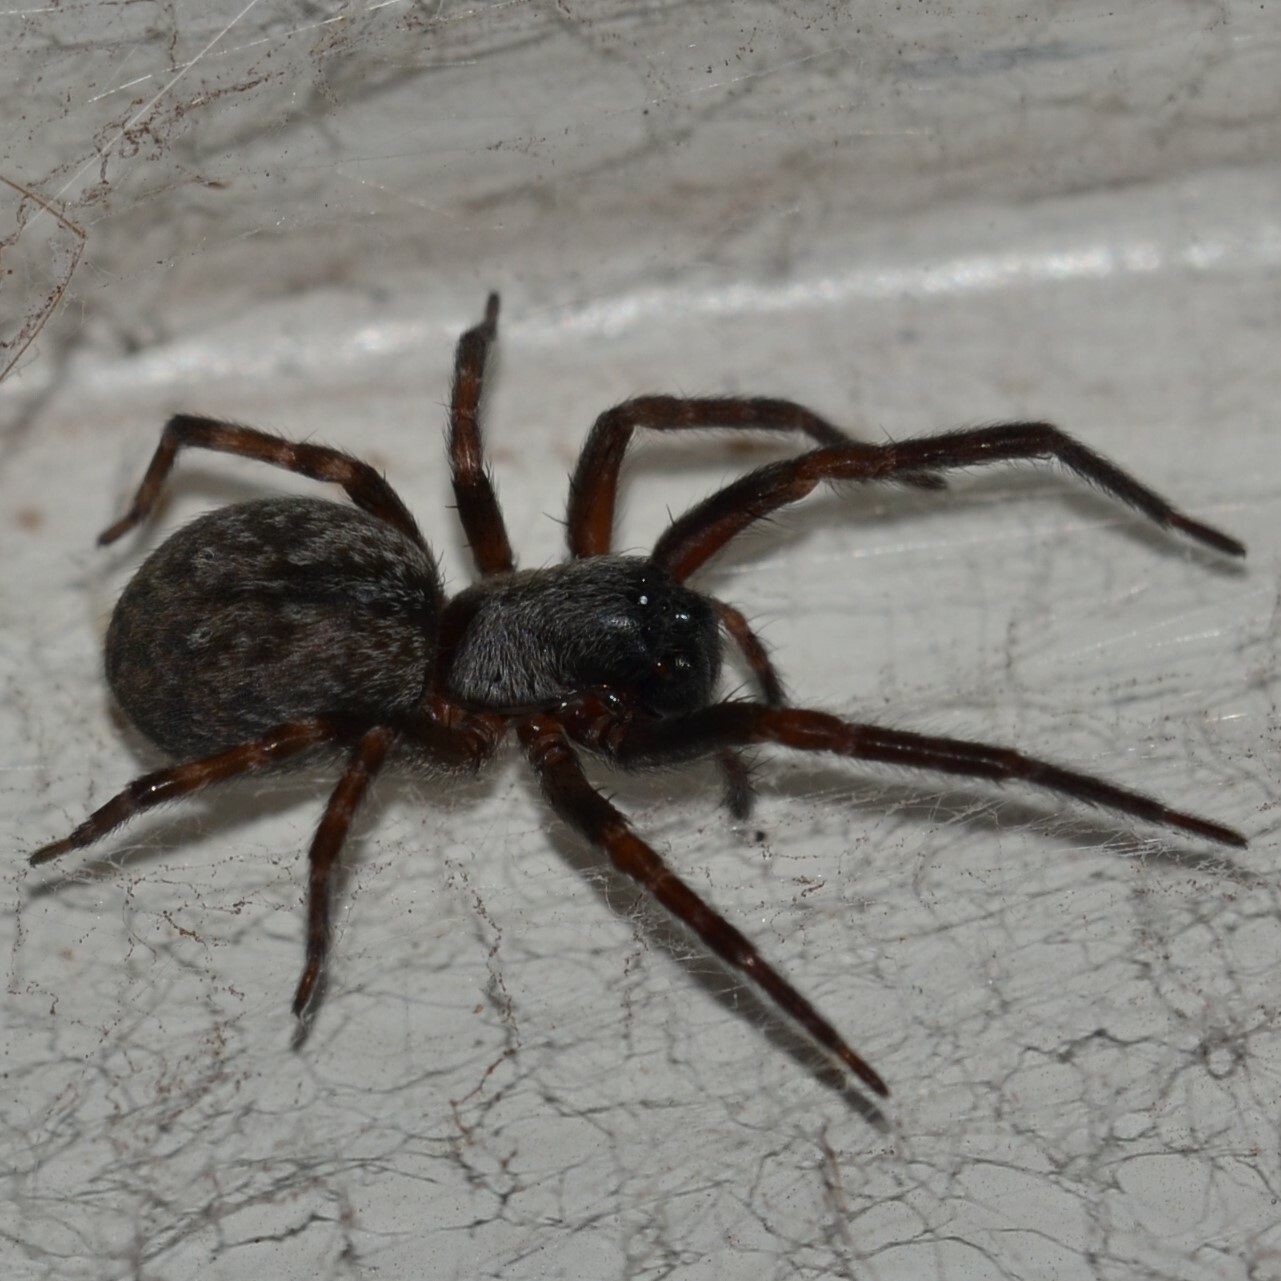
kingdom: Animalia
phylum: Arthropoda
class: Arachnida
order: Araneae
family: Desidae
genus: Badumna
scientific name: Badumna longinqua
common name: Gray house spider
